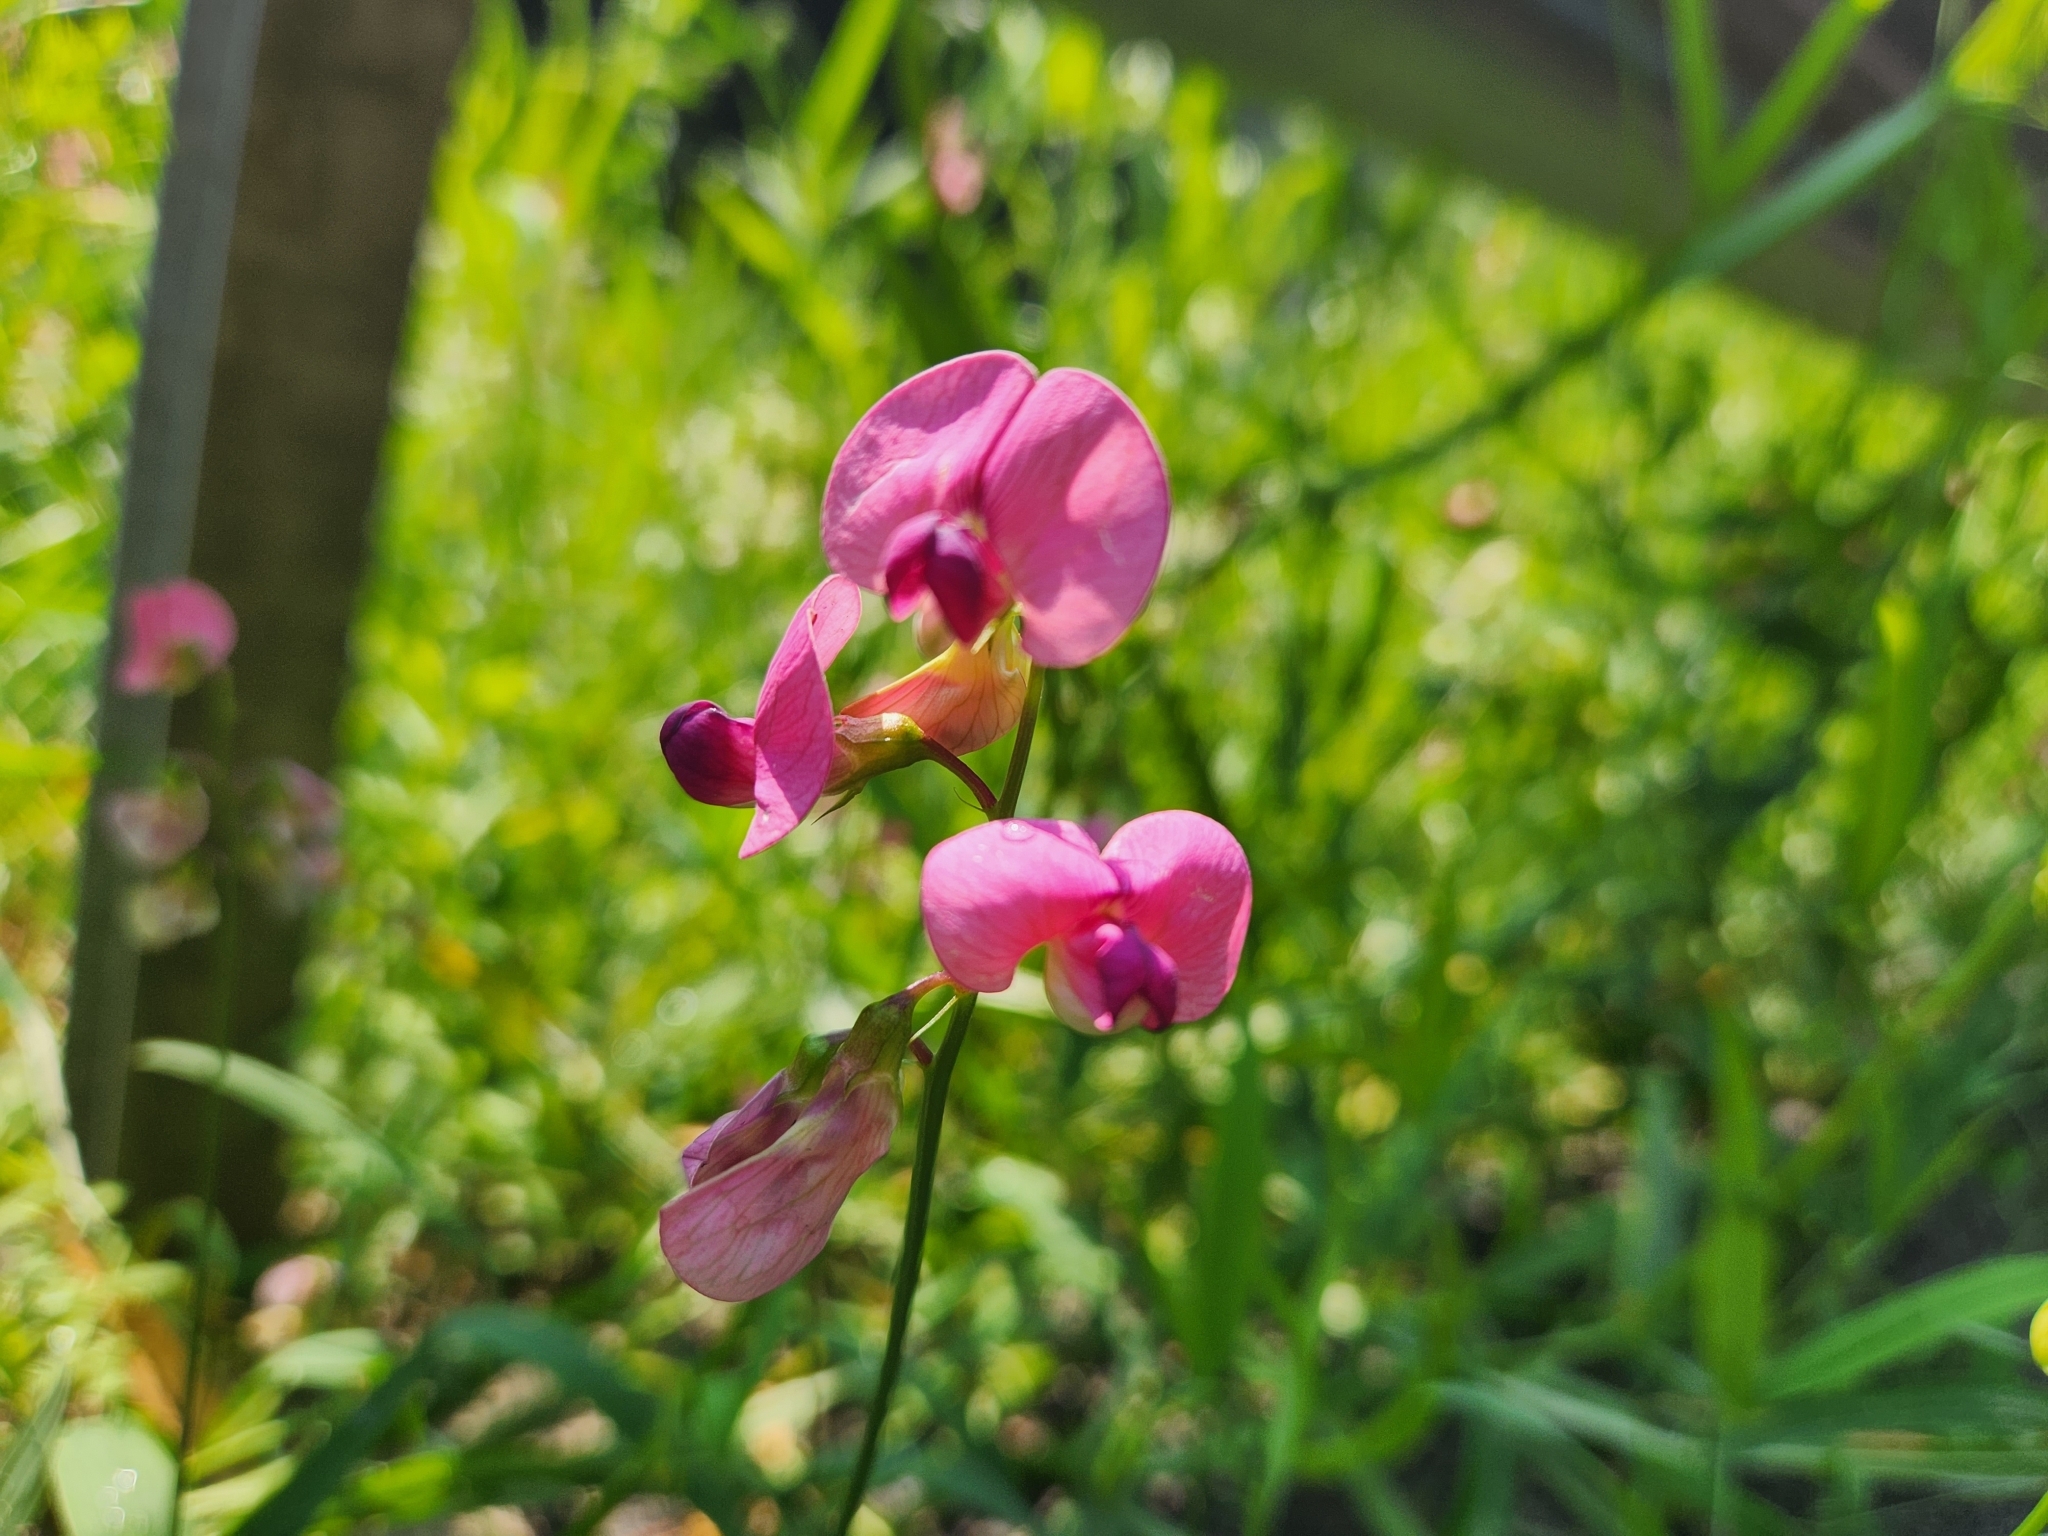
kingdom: Plantae
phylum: Tracheophyta
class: Magnoliopsida
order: Fabales
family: Fabaceae
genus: Lathyrus
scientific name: Lathyrus sylvestris
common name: Flat pea
